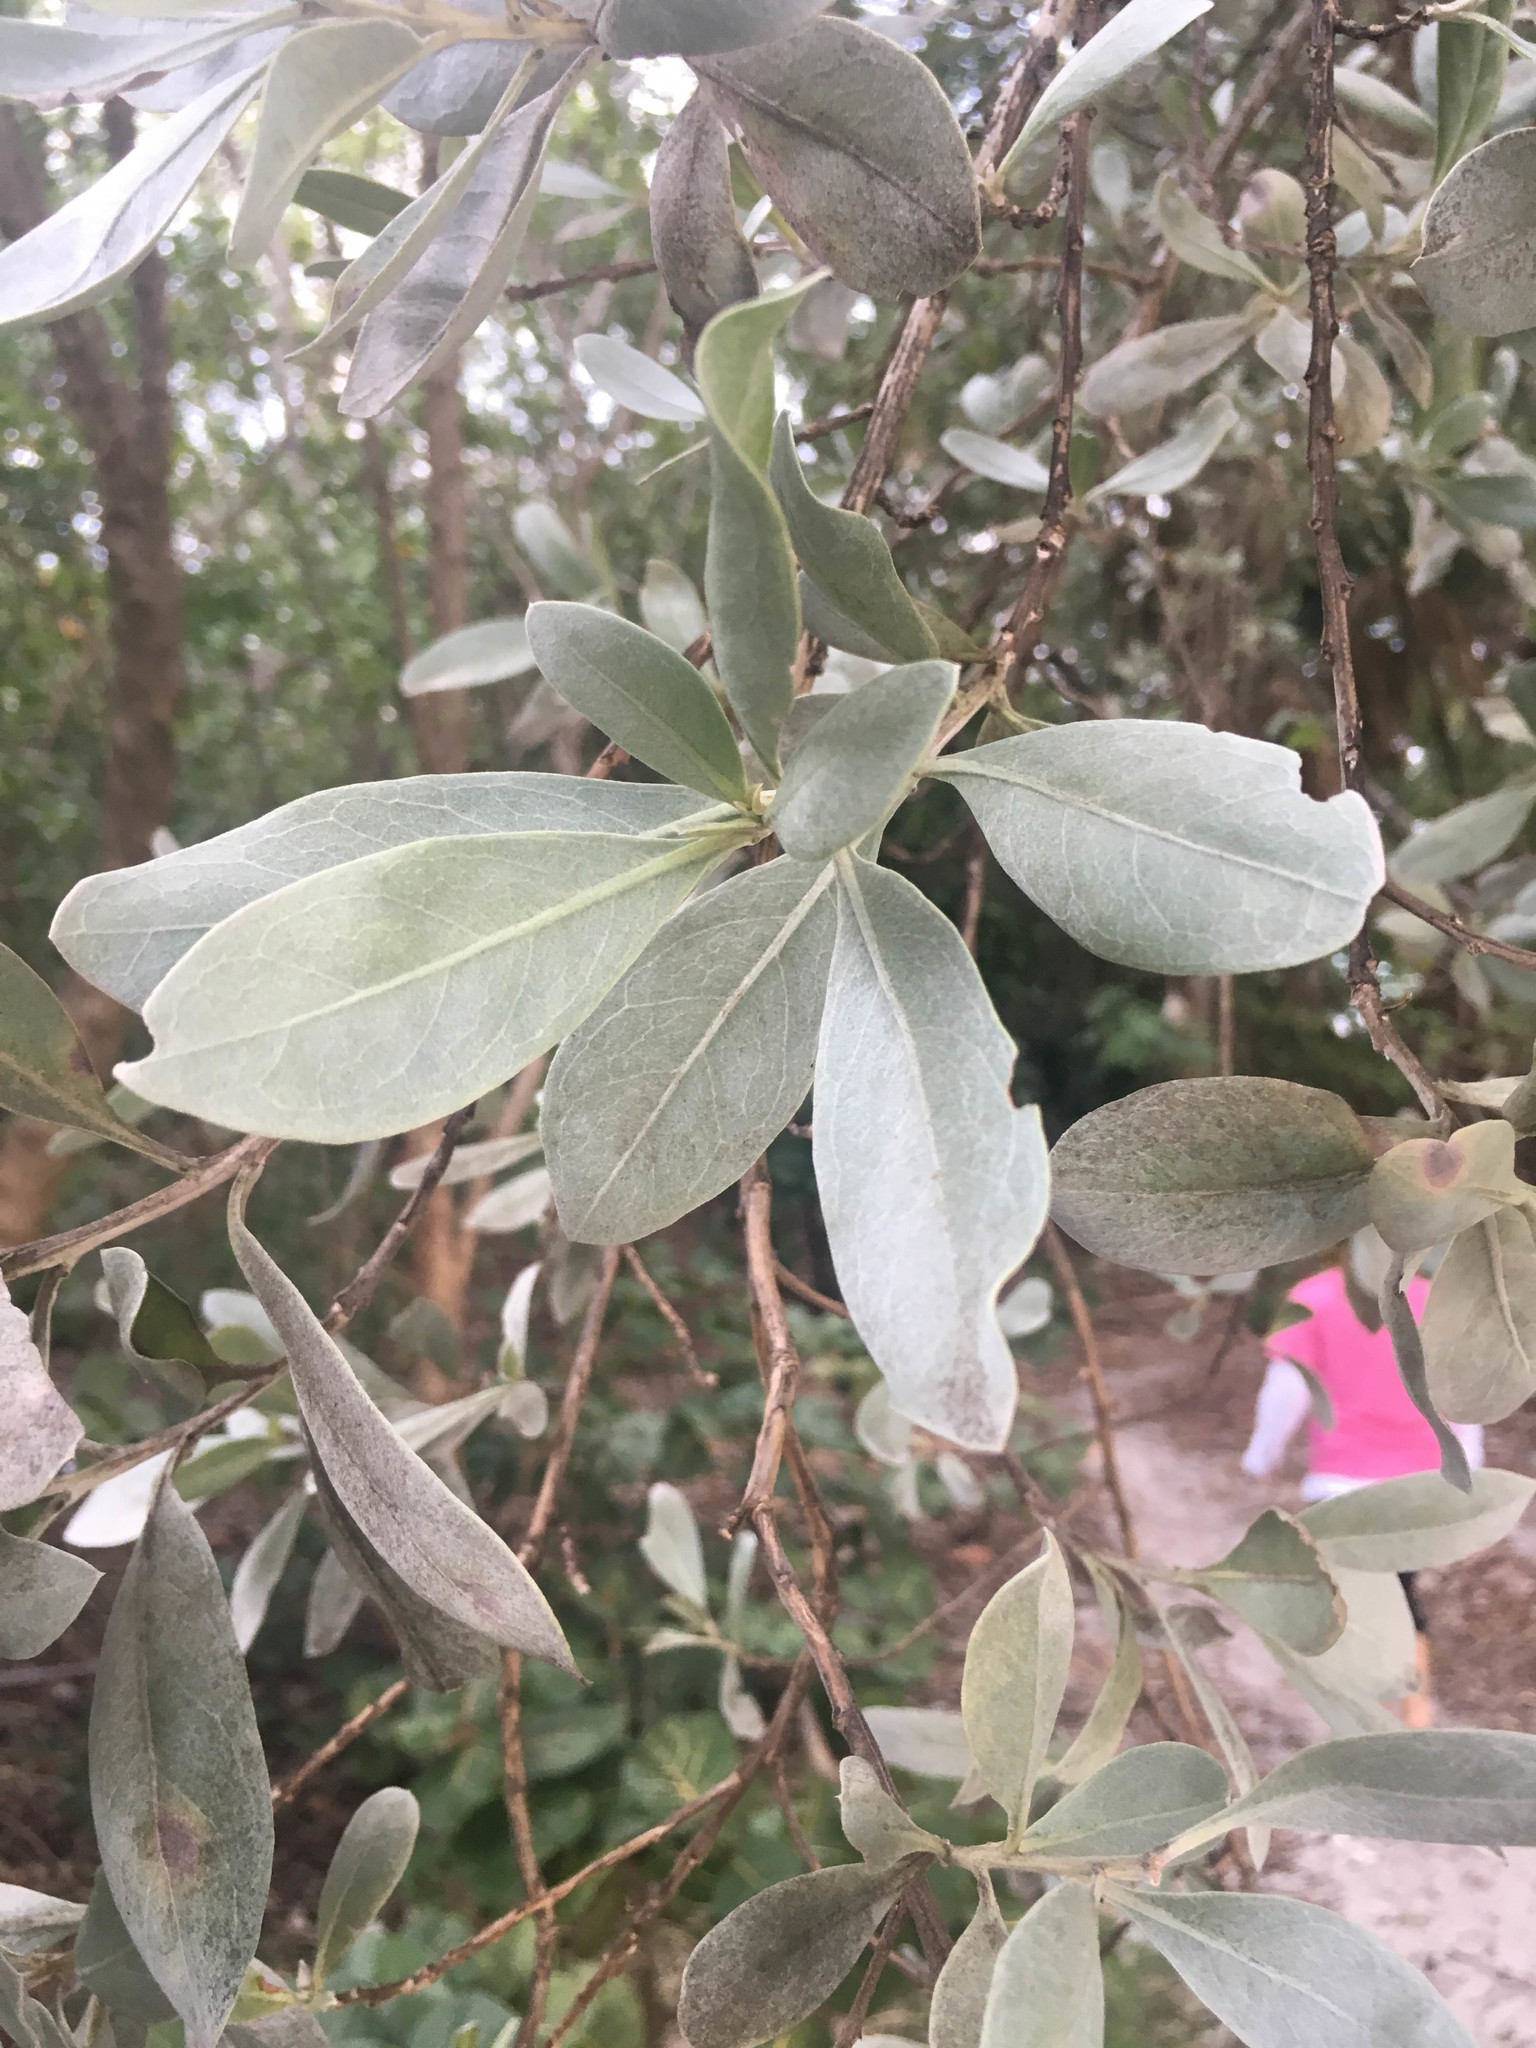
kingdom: Plantae
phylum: Tracheophyta
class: Magnoliopsida
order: Myrtales
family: Combretaceae
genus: Conocarpus
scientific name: Conocarpus erectus
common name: Button mangrove
